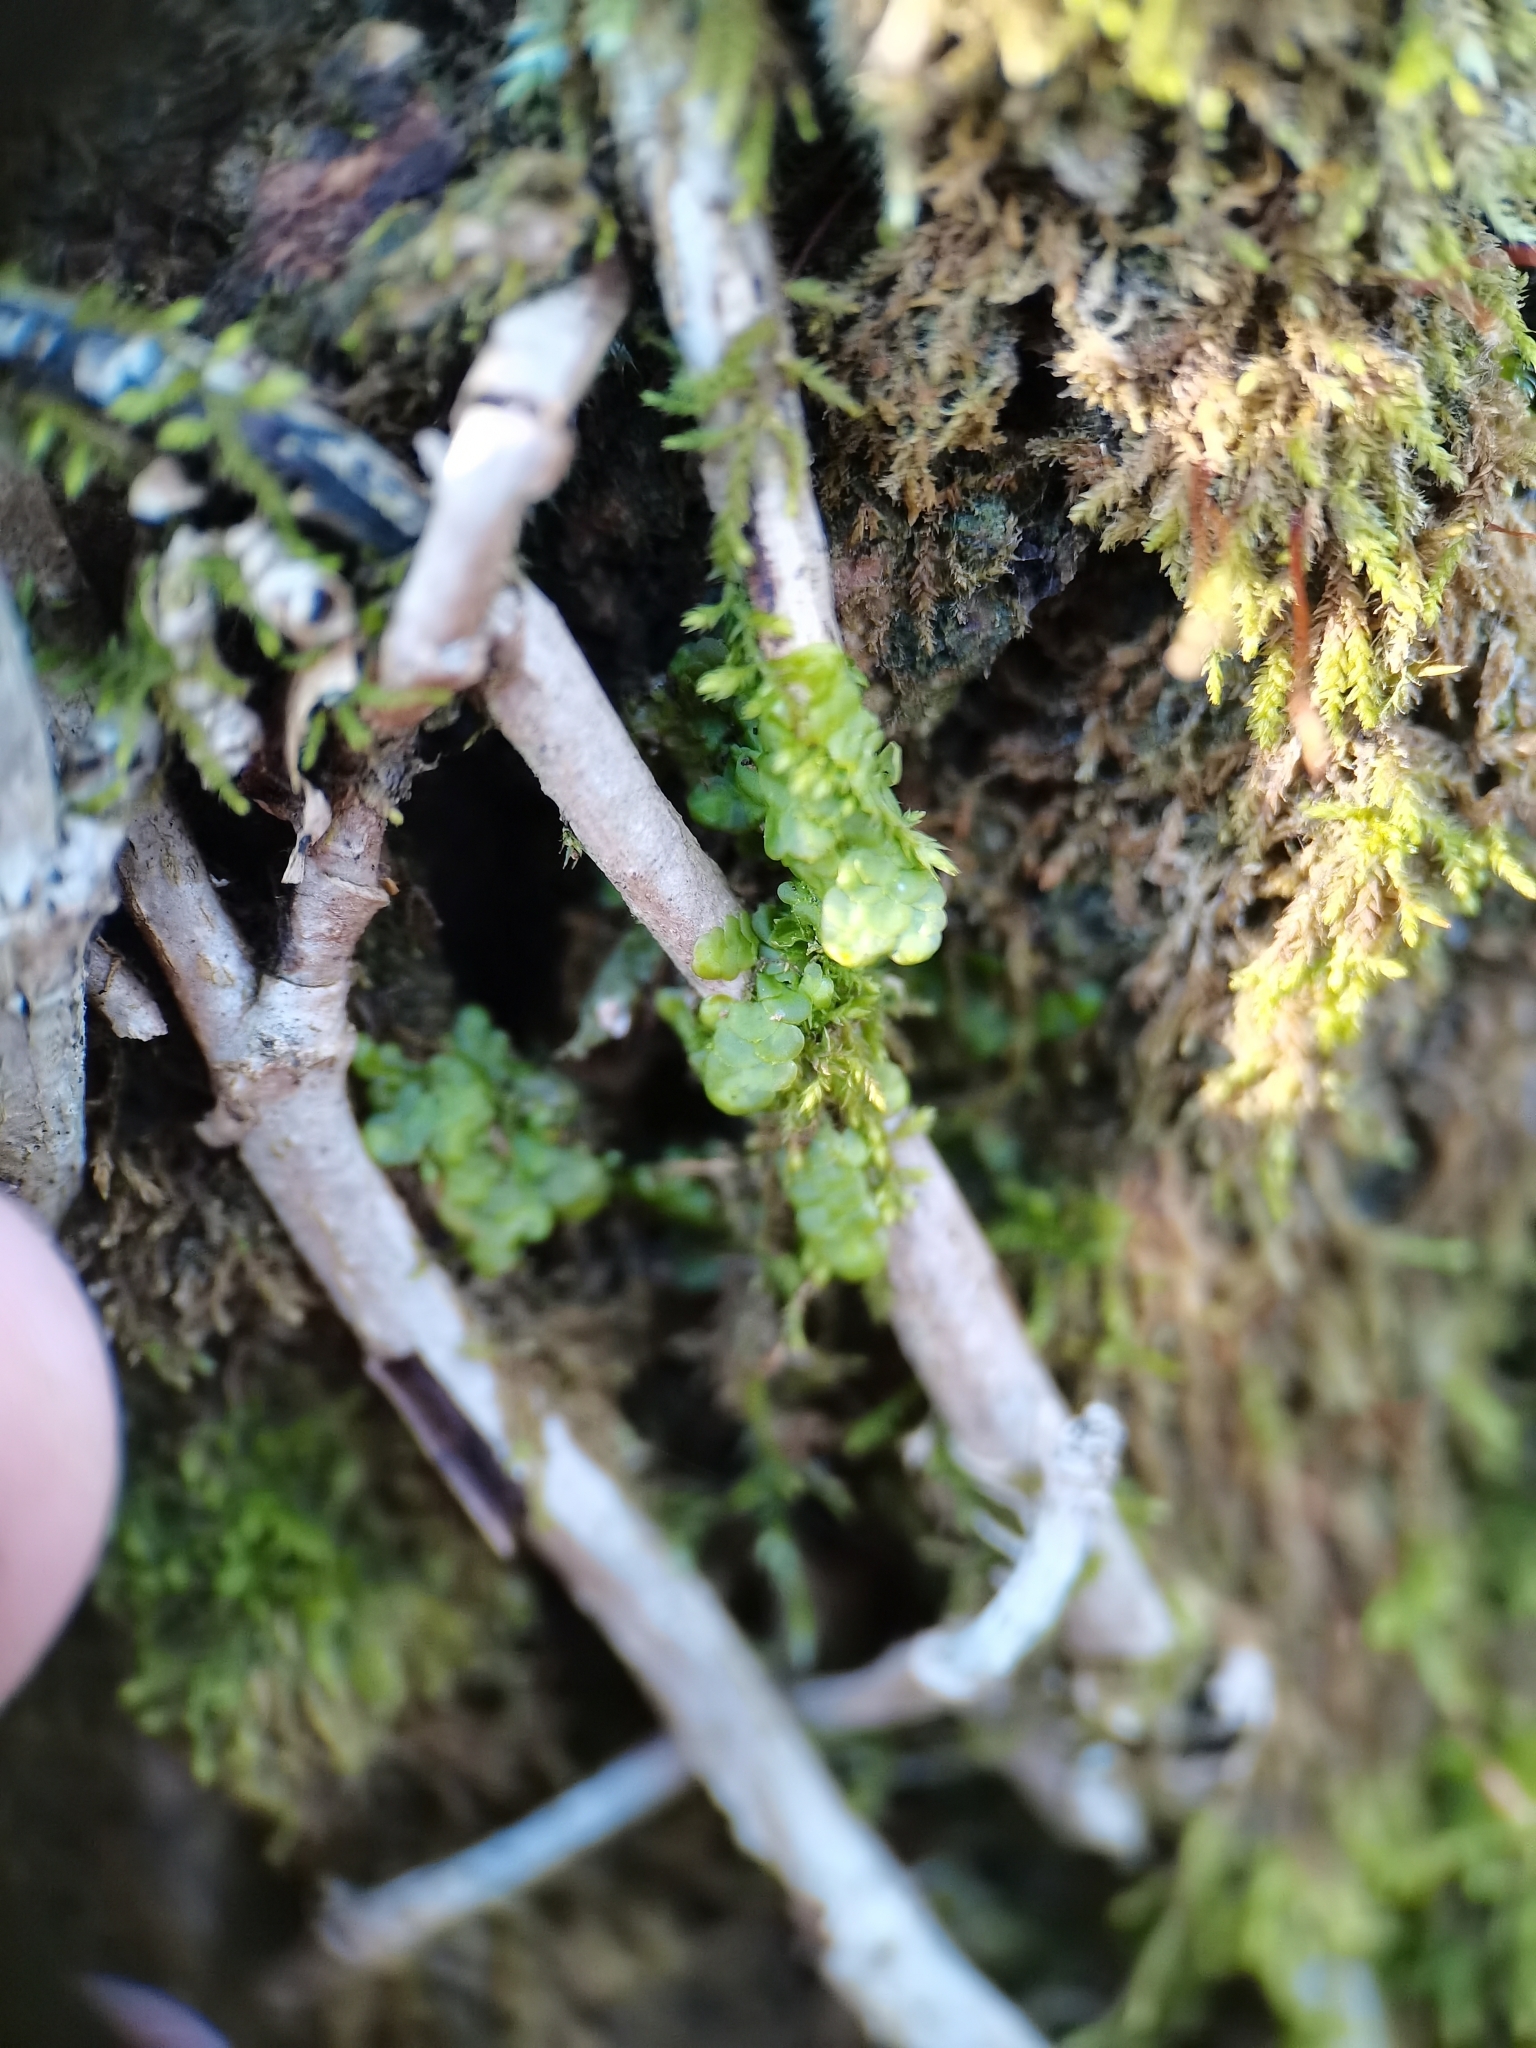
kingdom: Plantae
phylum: Marchantiophyta
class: Jungermanniopsida
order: Porellales
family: Radulaceae
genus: Radula
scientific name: Radula complanata
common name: Flat-leaved scalewort
